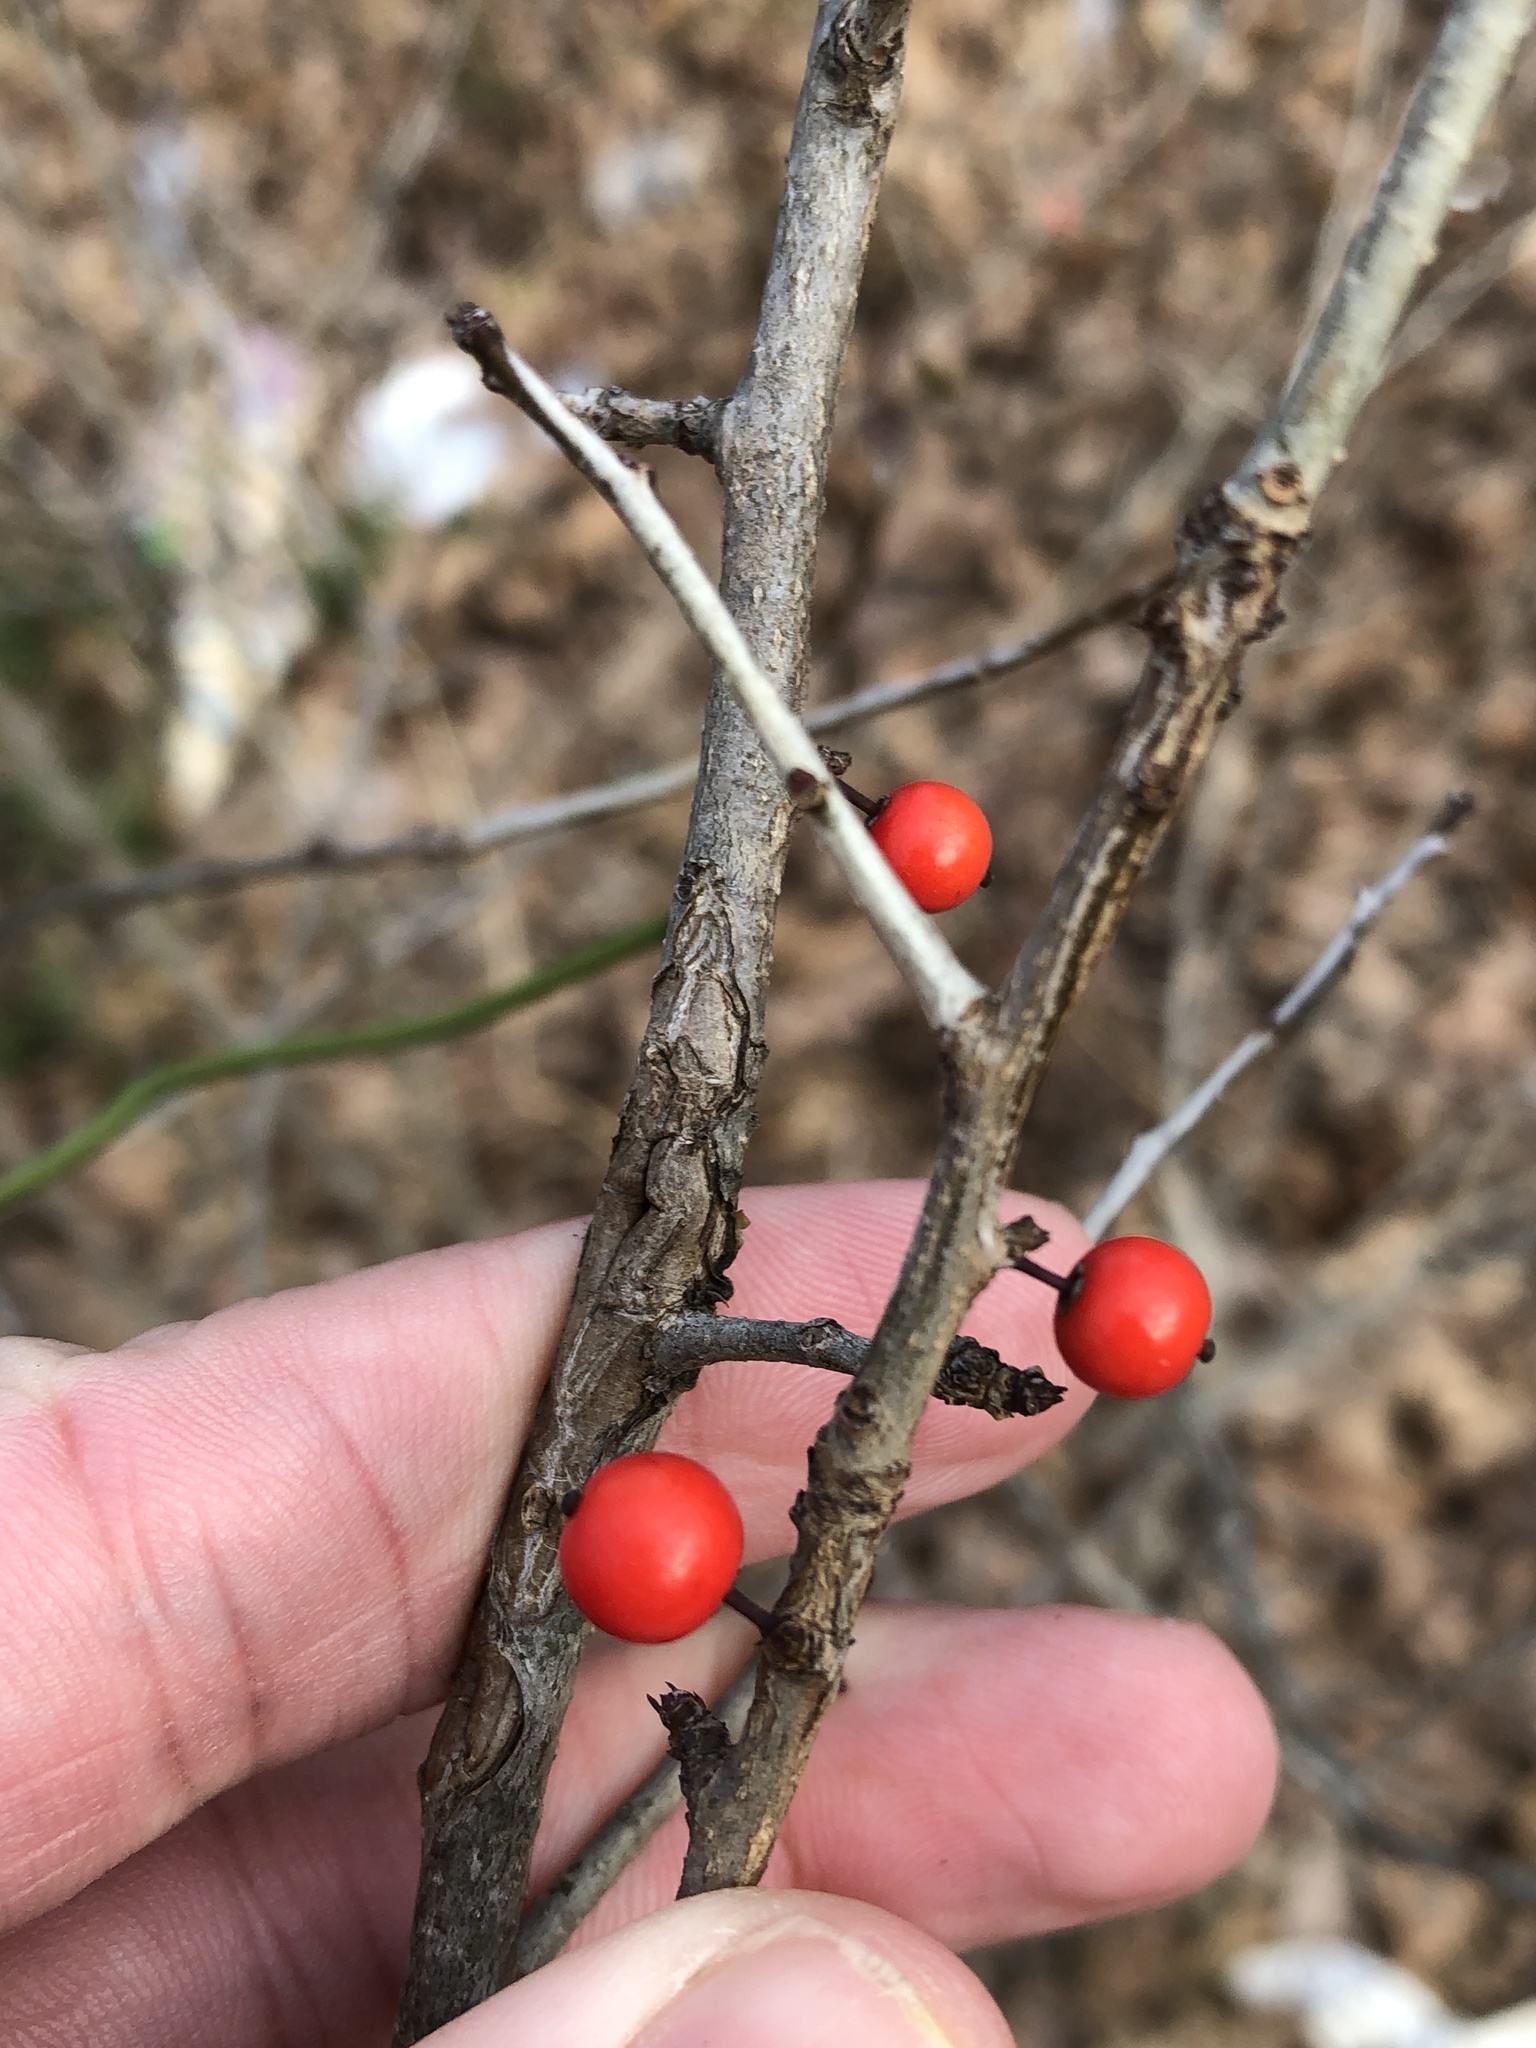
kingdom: Plantae
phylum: Tracheophyta
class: Magnoliopsida
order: Aquifoliales
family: Aquifoliaceae
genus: Ilex
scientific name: Ilex decidua
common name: Possum-haw
